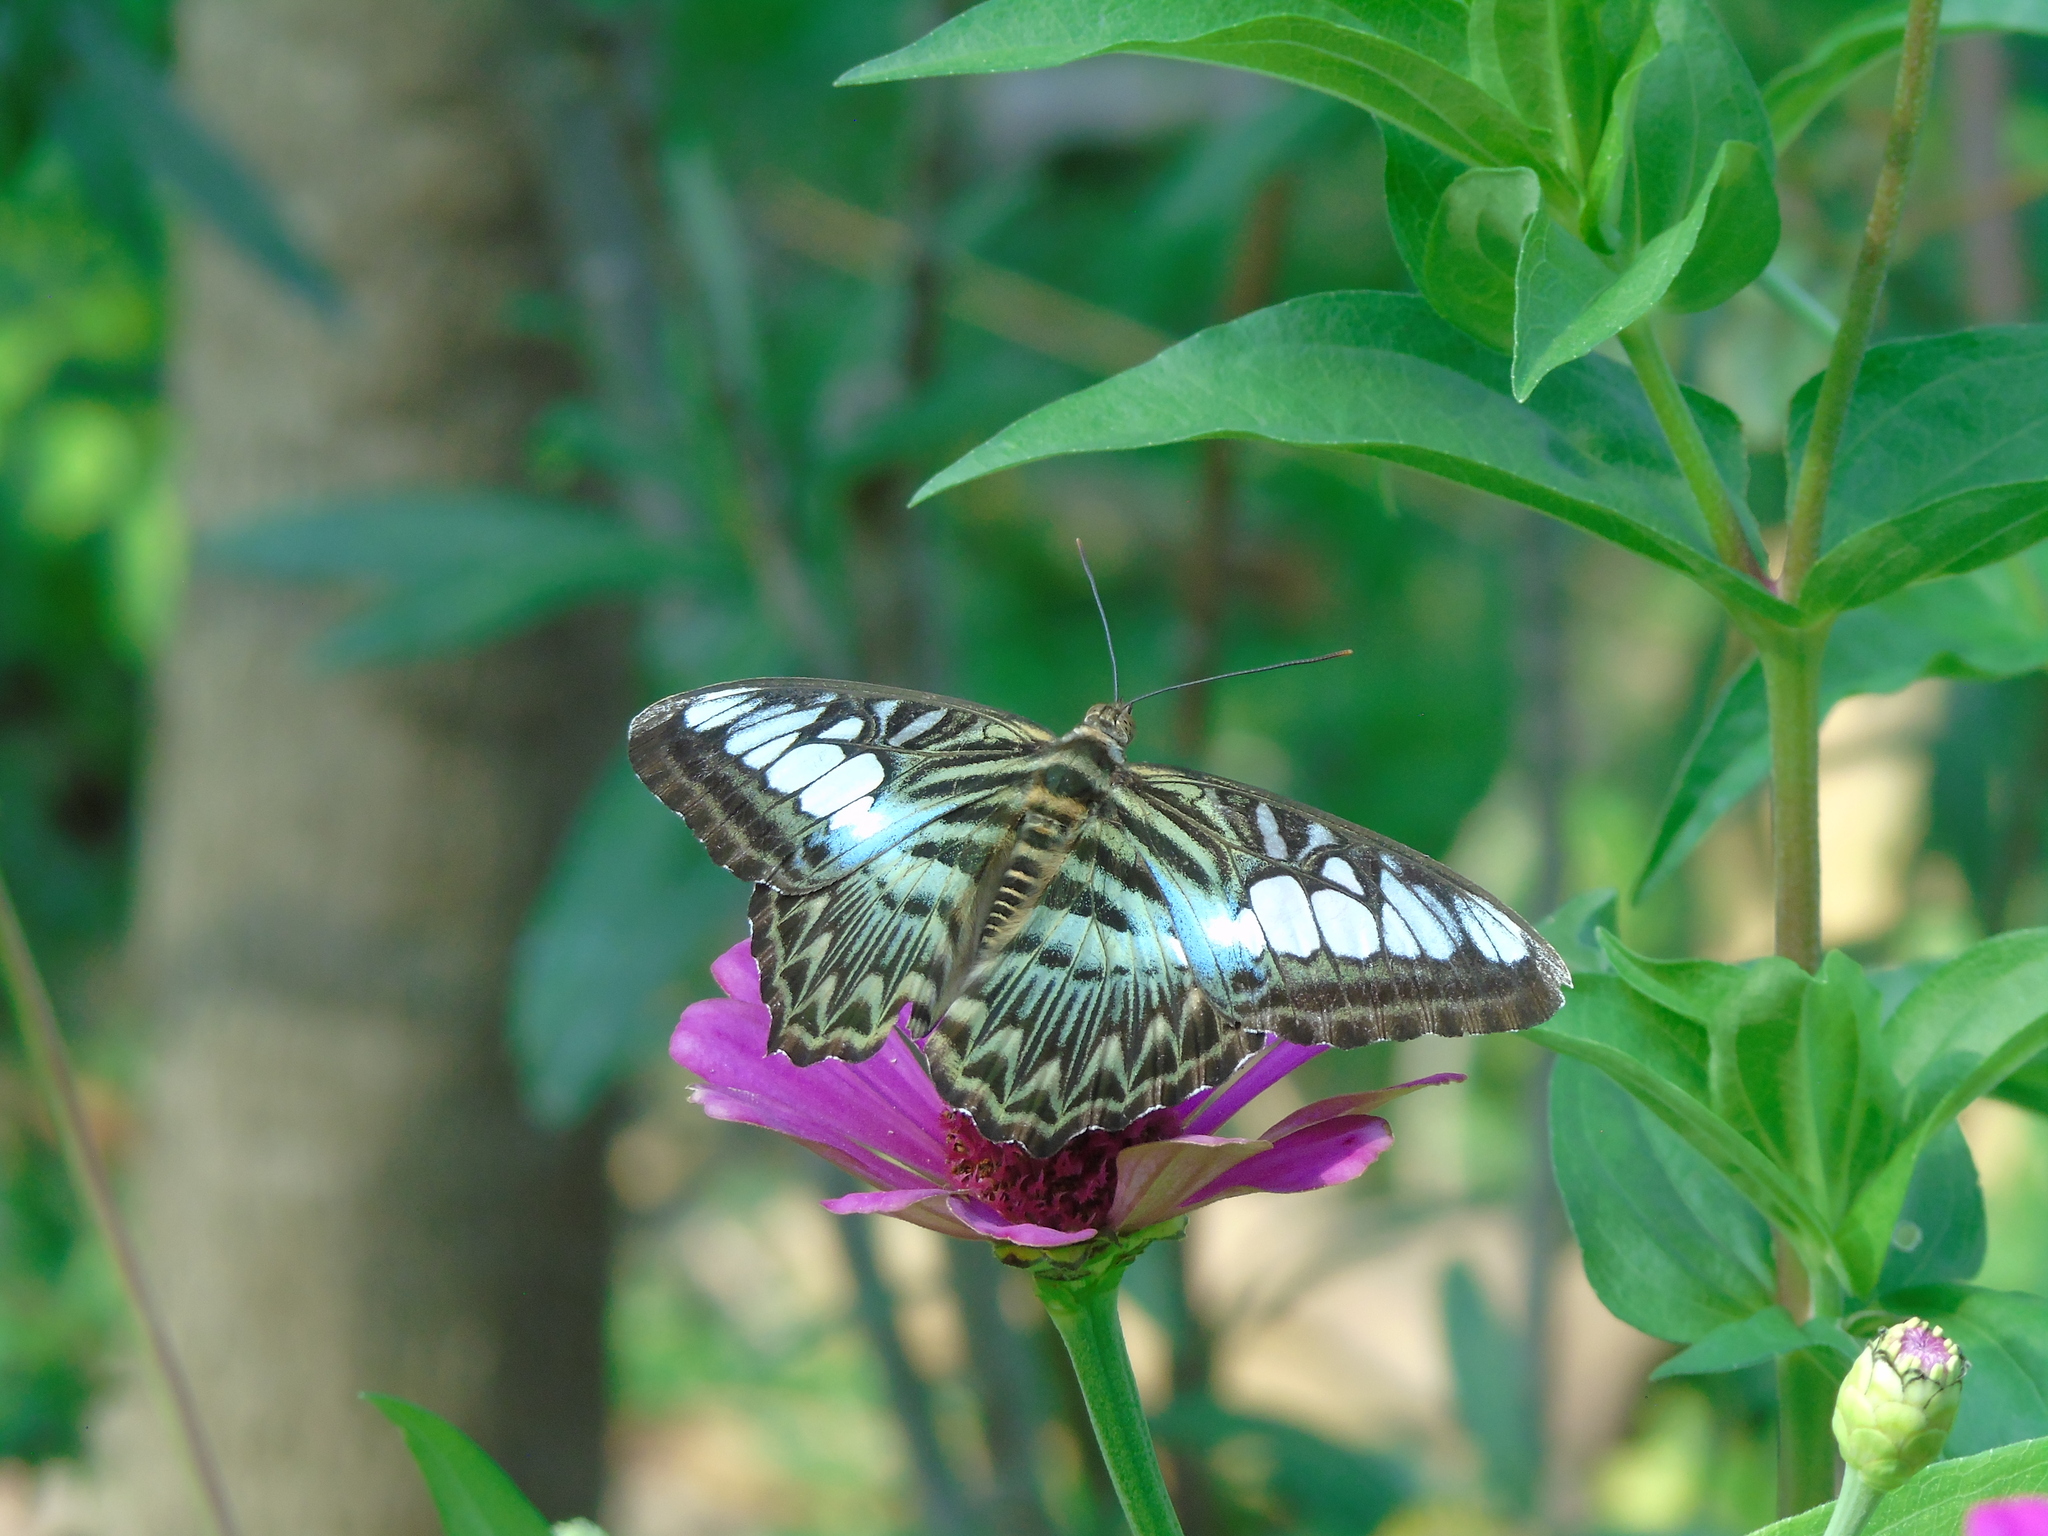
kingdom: Animalia
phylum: Arthropoda
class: Insecta
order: Lepidoptera
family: Nymphalidae
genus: Kallima
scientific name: Kallima sylvia
